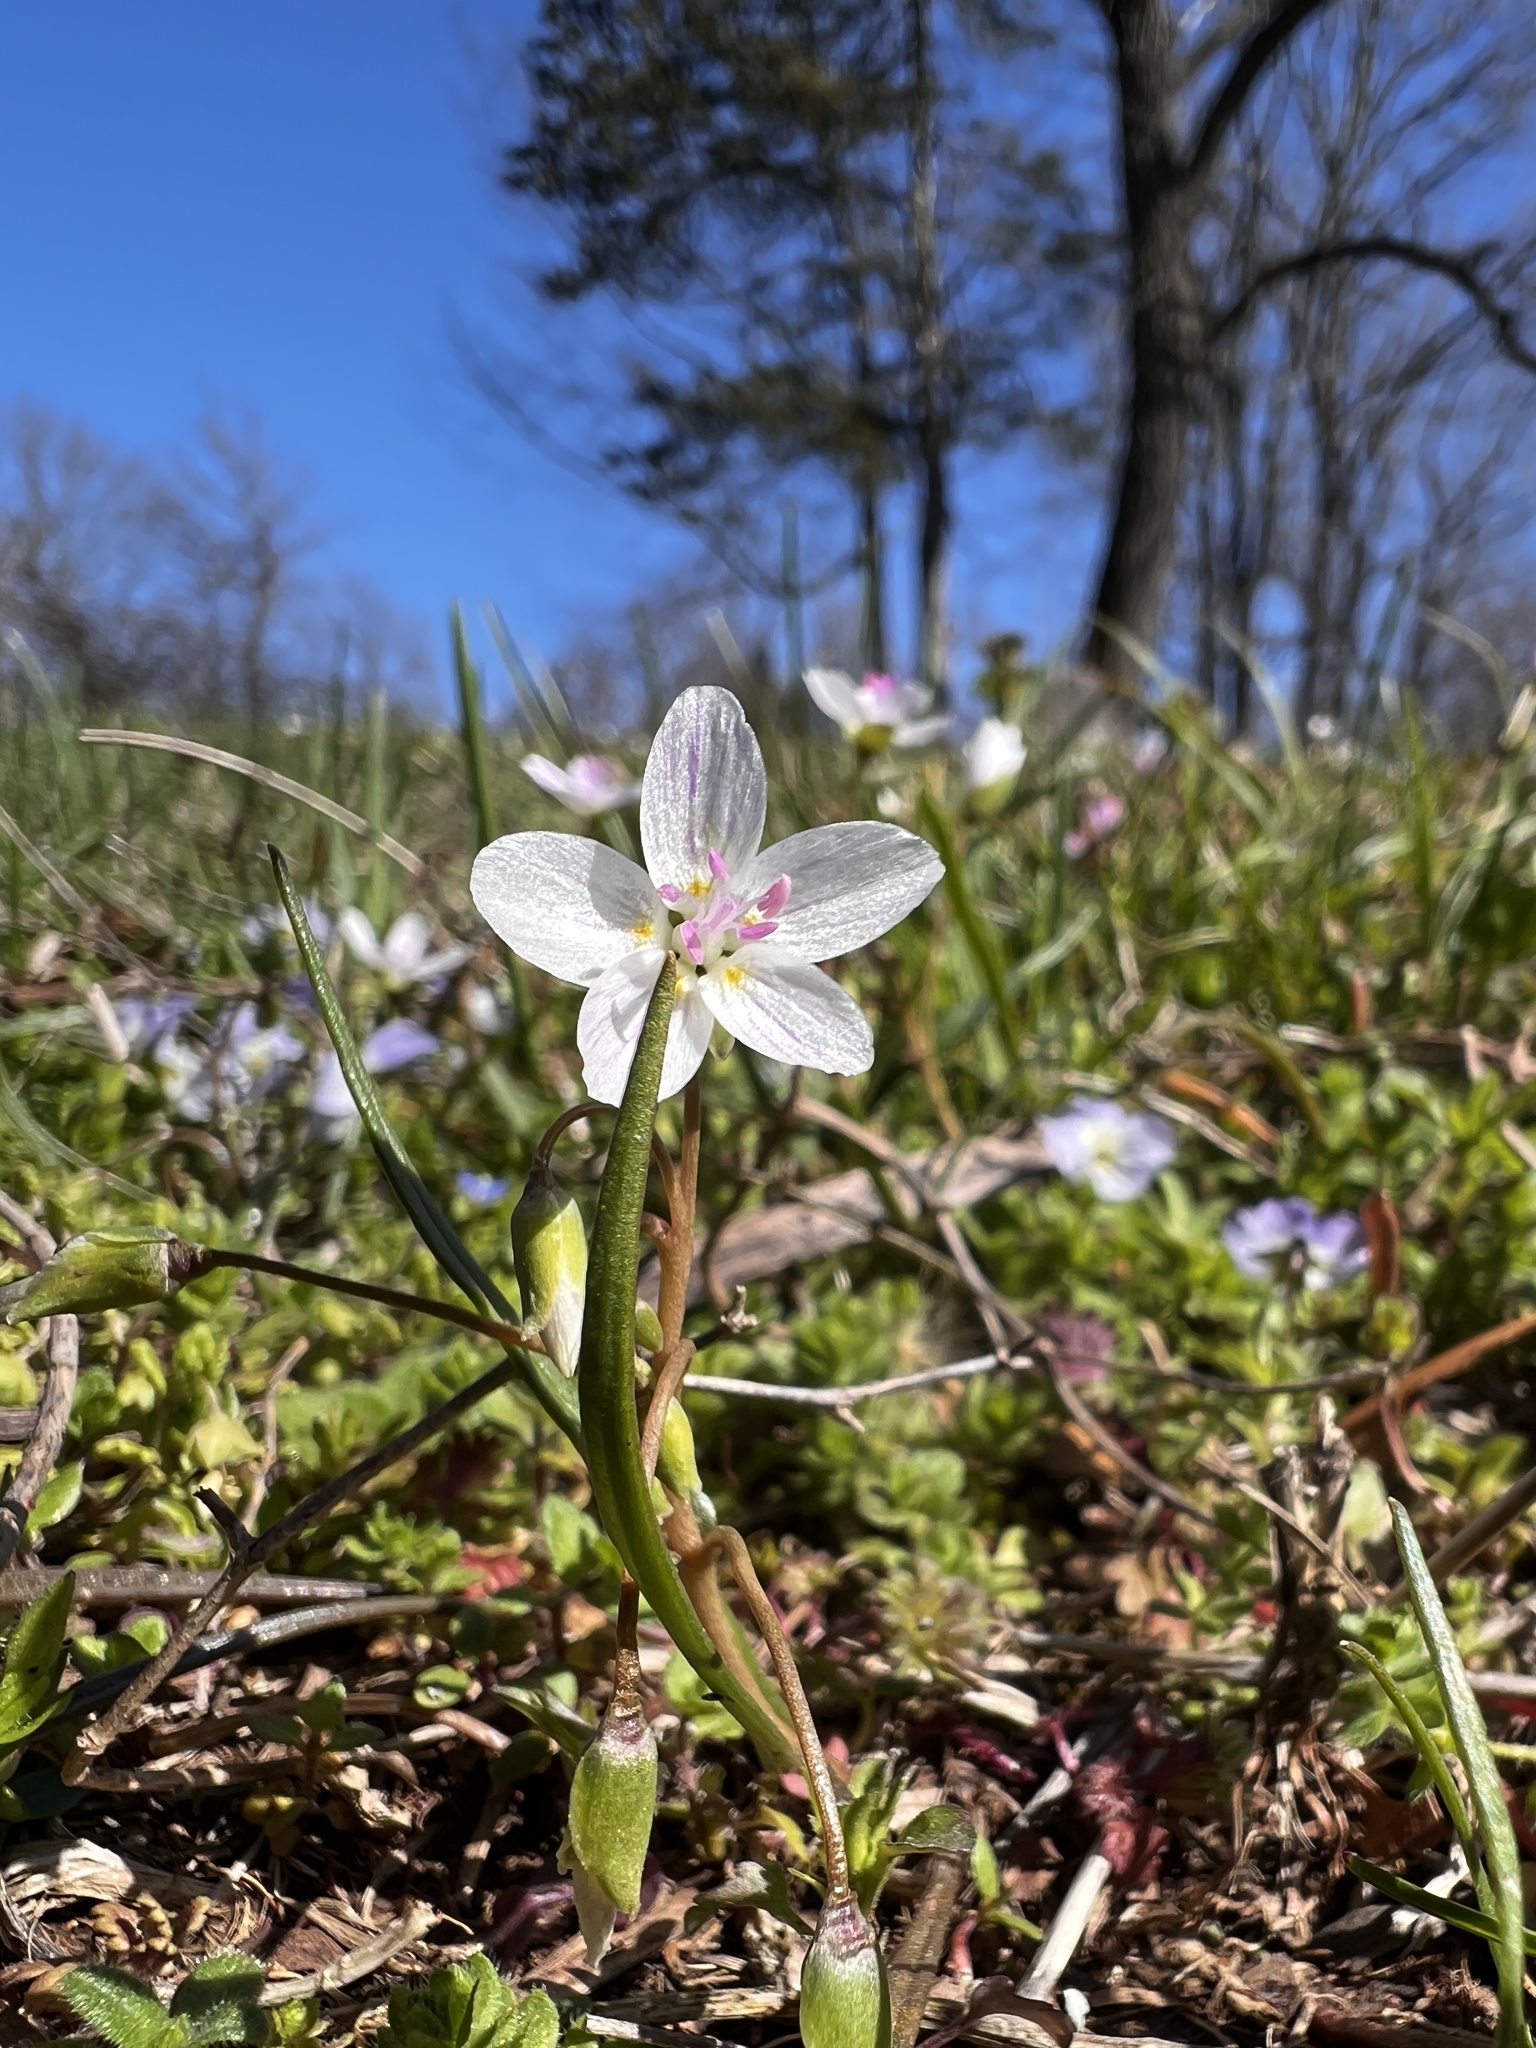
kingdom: Plantae
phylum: Tracheophyta
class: Magnoliopsida
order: Caryophyllales
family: Montiaceae
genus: Claytonia
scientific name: Claytonia virginica
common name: Virginia springbeauty
